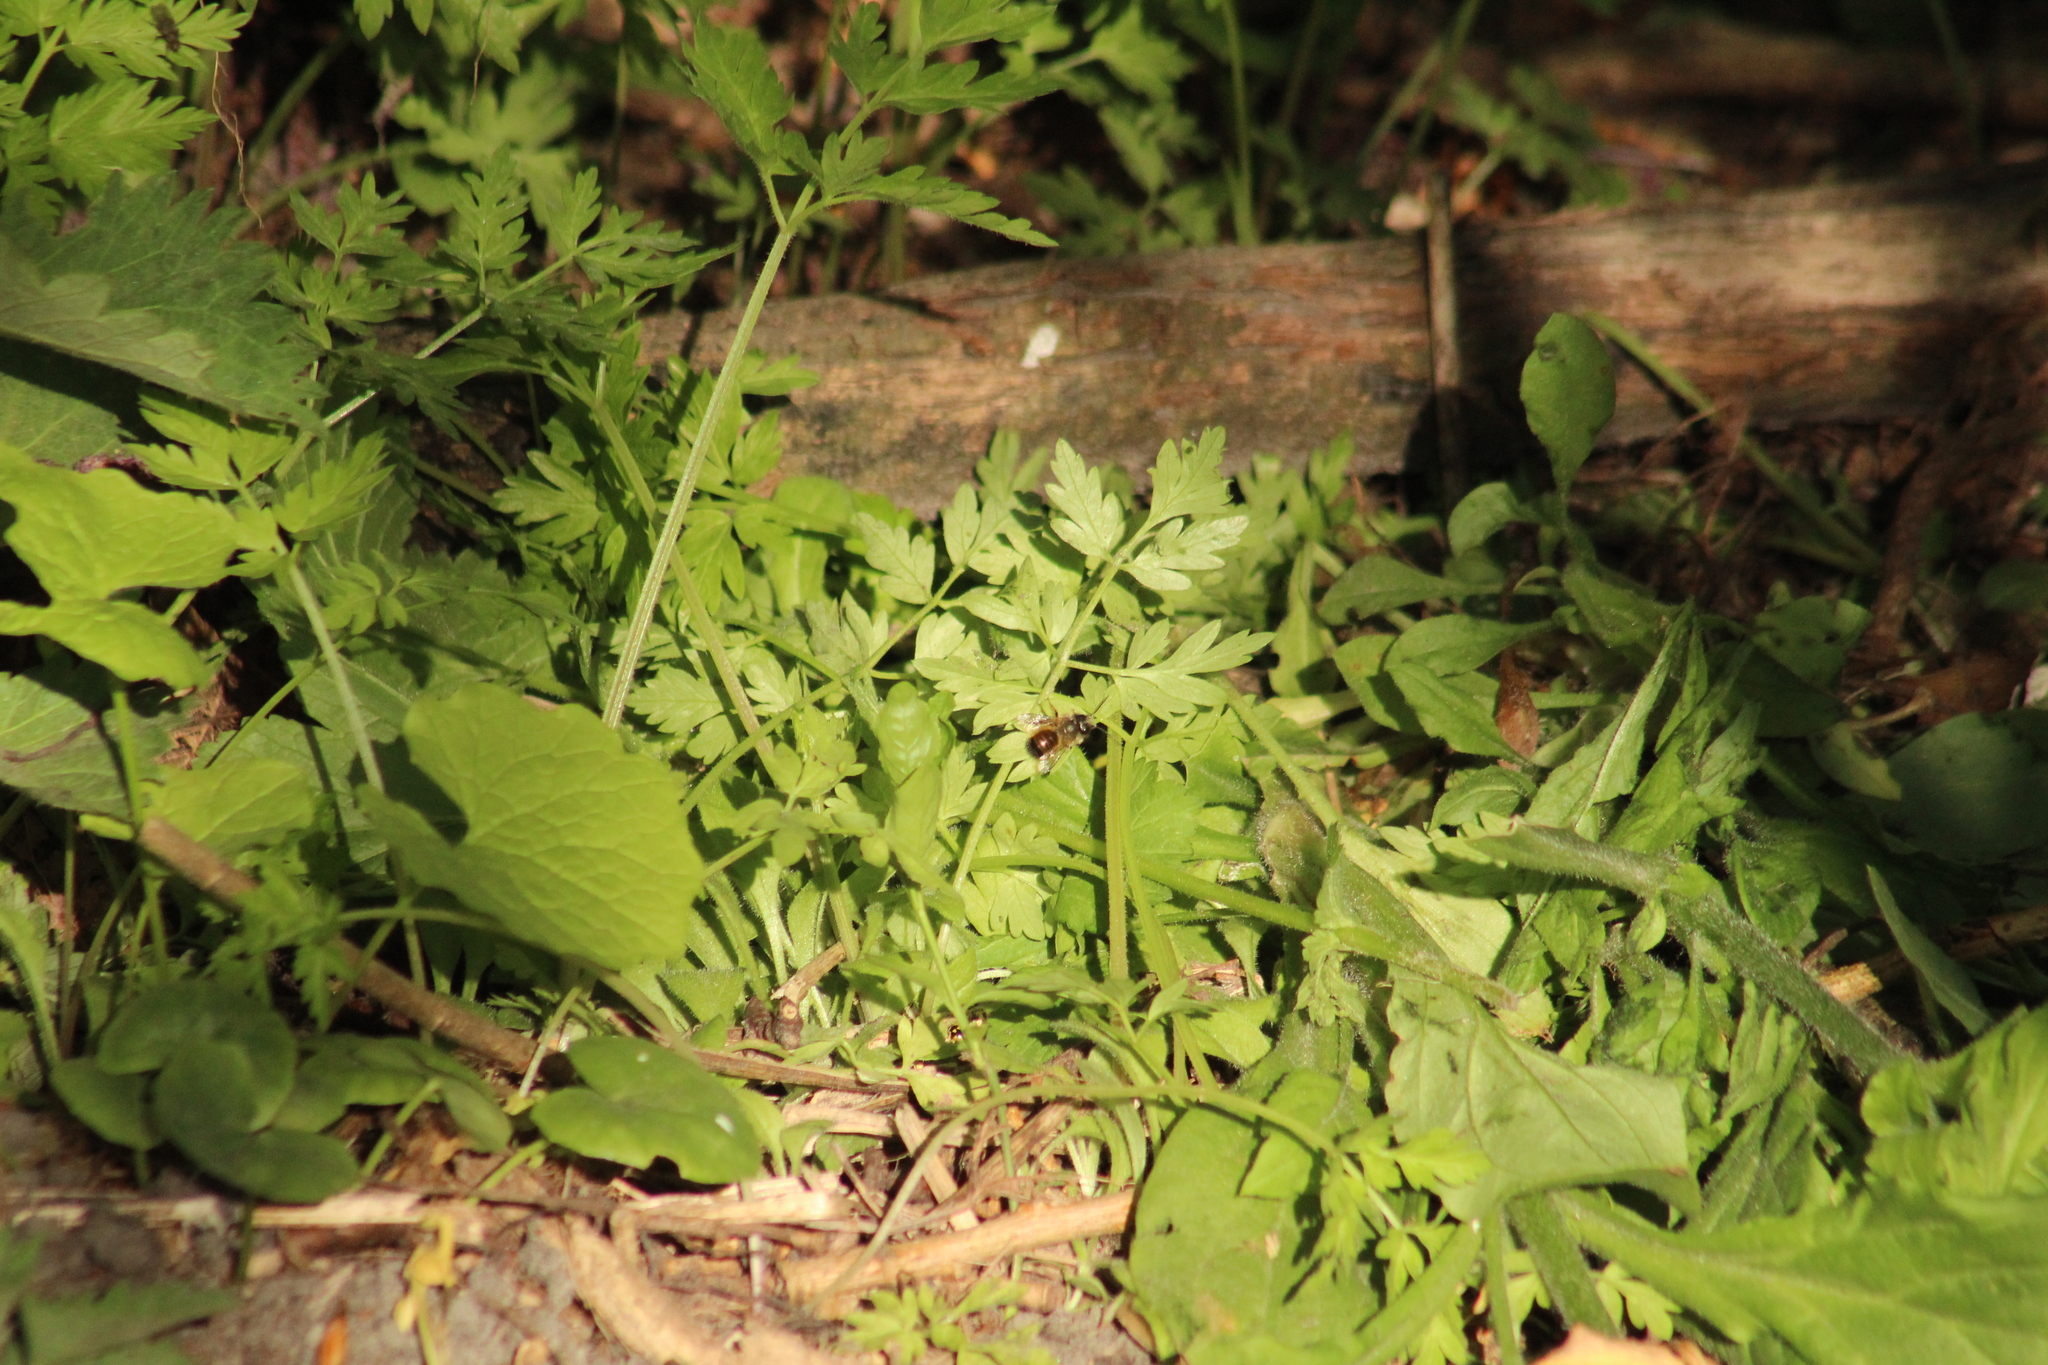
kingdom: Animalia
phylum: Arthropoda
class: Insecta
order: Hymenoptera
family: Megachilidae
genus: Osmia
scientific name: Osmia bicornis
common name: Red mason bee
